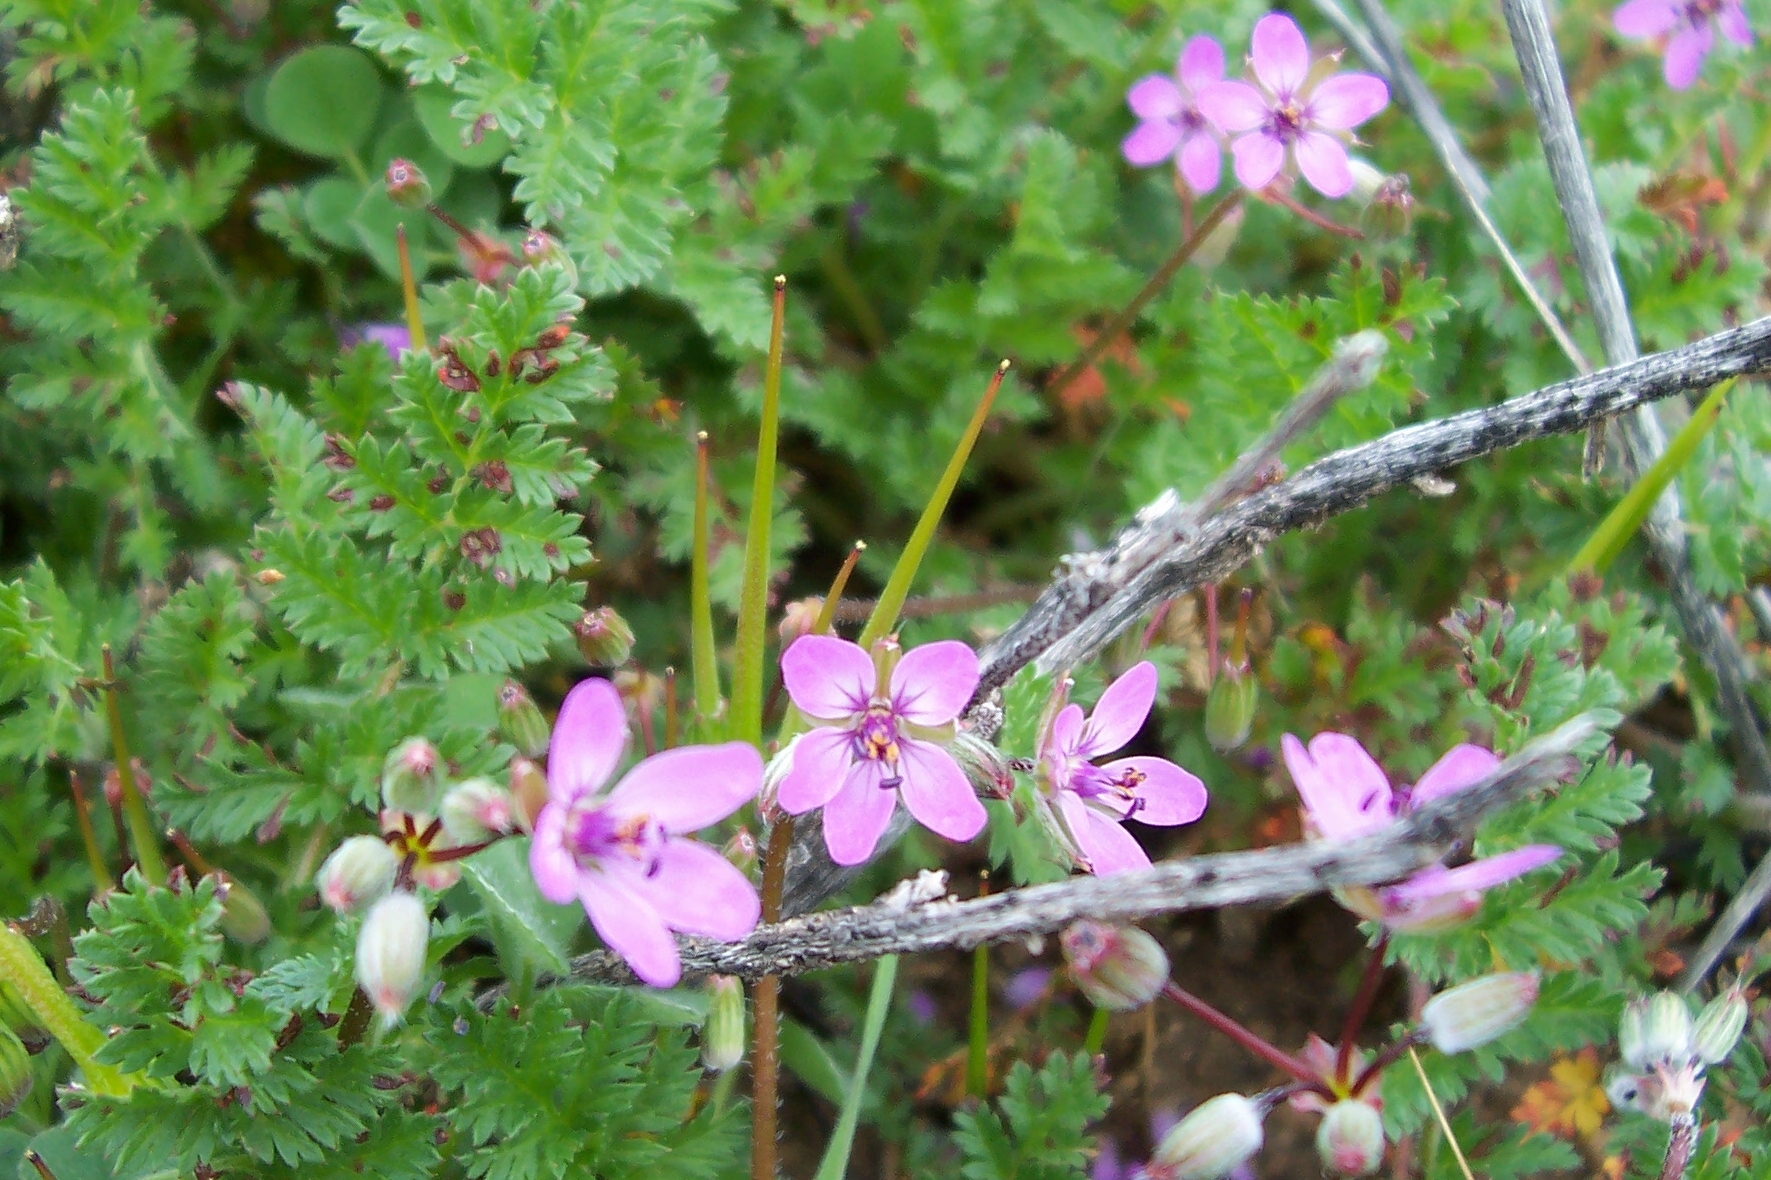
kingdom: Plantae
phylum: Tracheophyta
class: Magnoliopsida
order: Geraniales
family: Geraniaceae
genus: Erodium
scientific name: Erodium cicutarium
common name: Common stork's-bill
